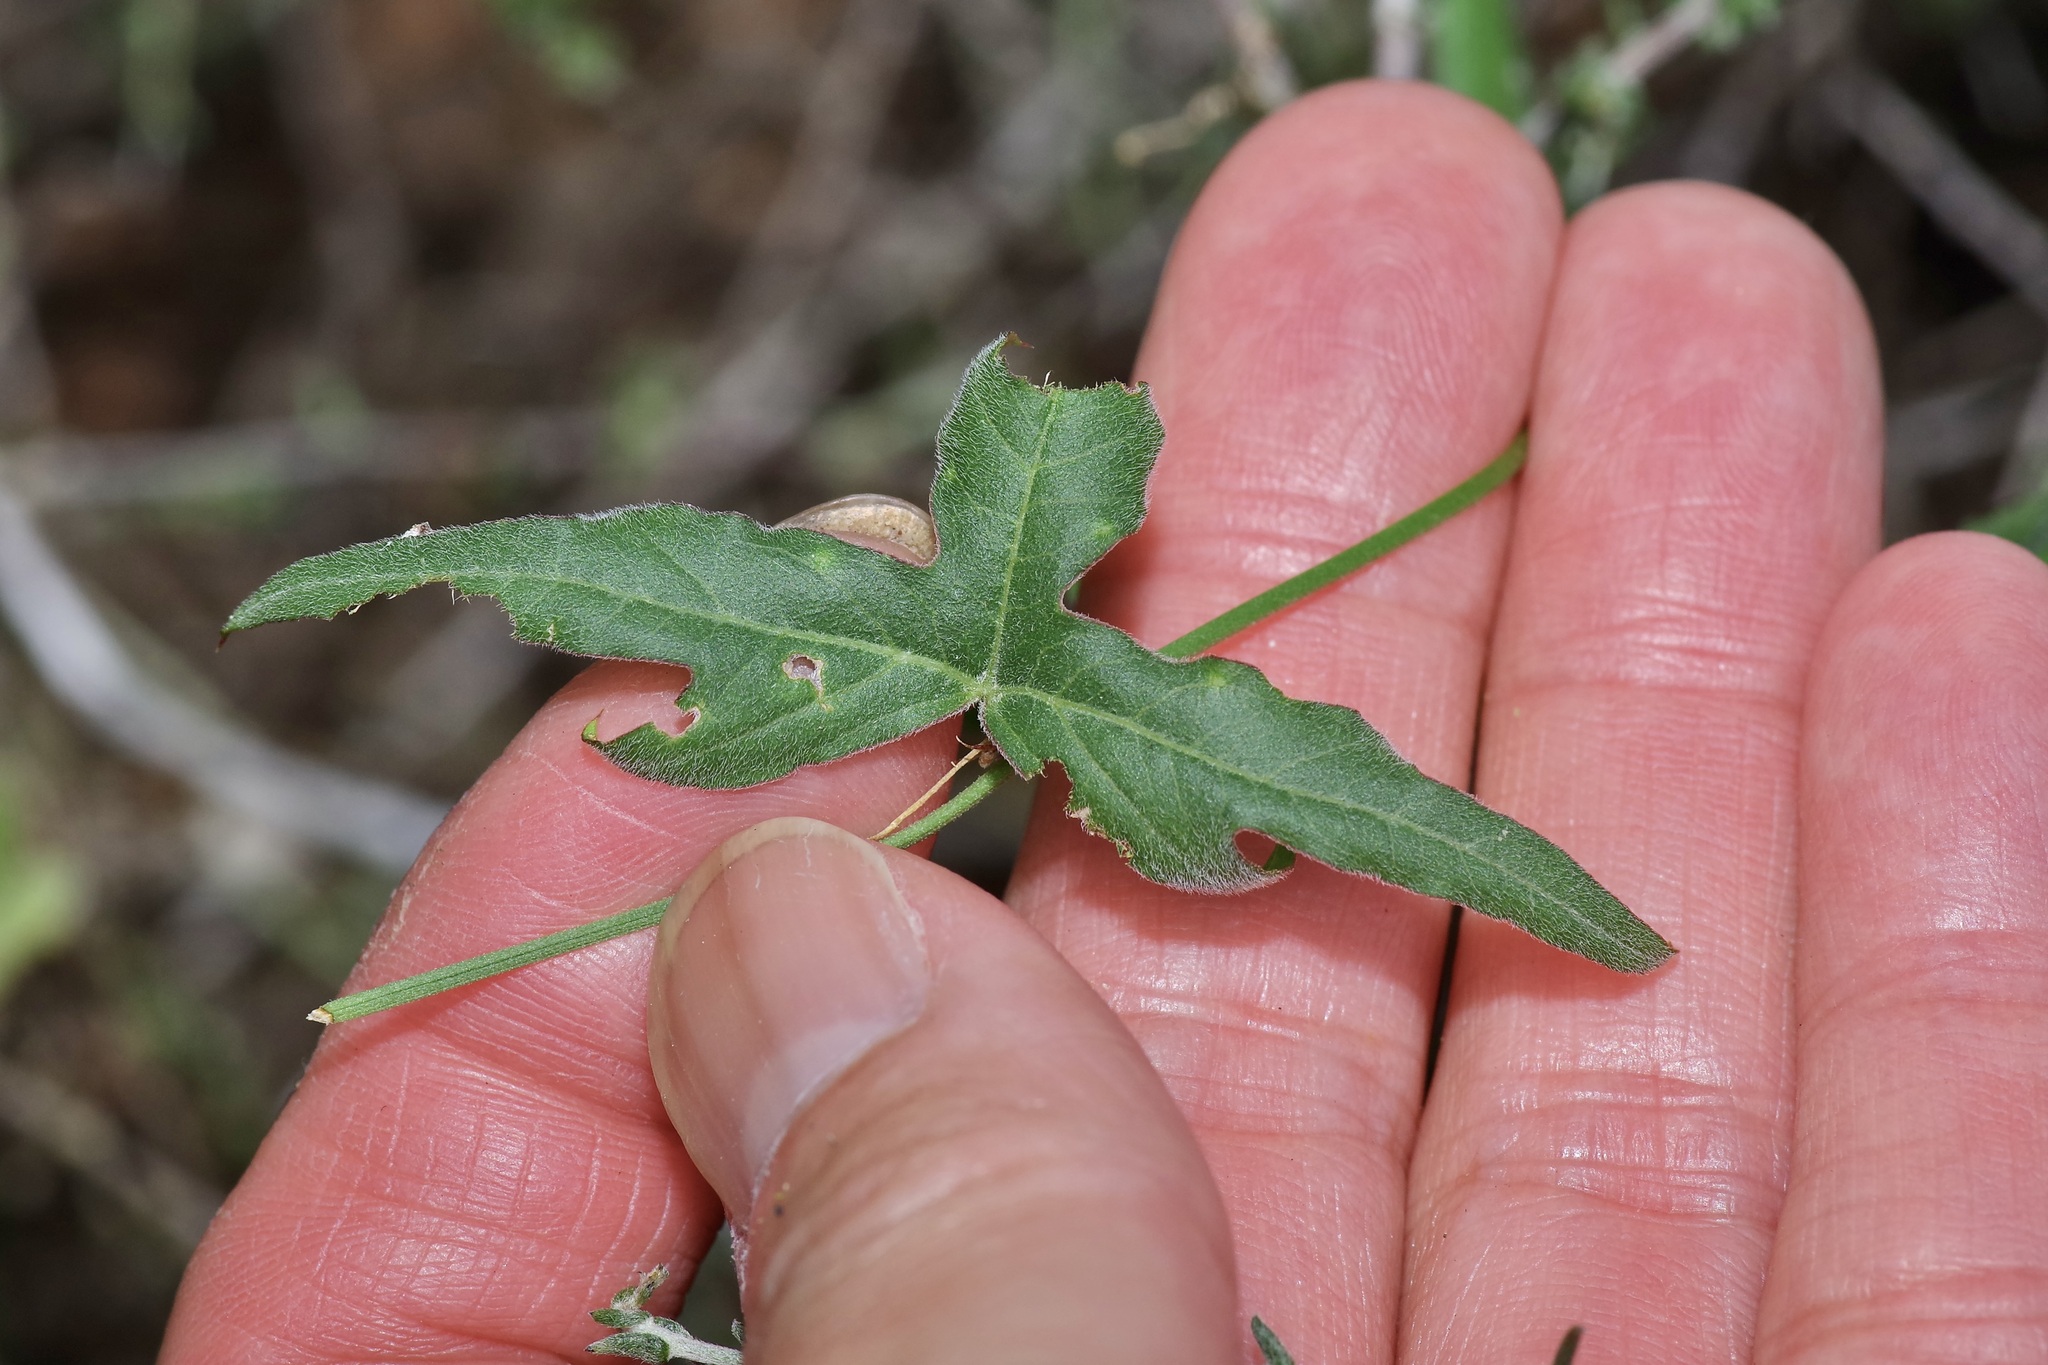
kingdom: Plantae
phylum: Tracheophyta
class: Magnoliopsida
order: Malpighiales
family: Passifloraceae
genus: Passiflora
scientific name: Passiflora tenuiloba
